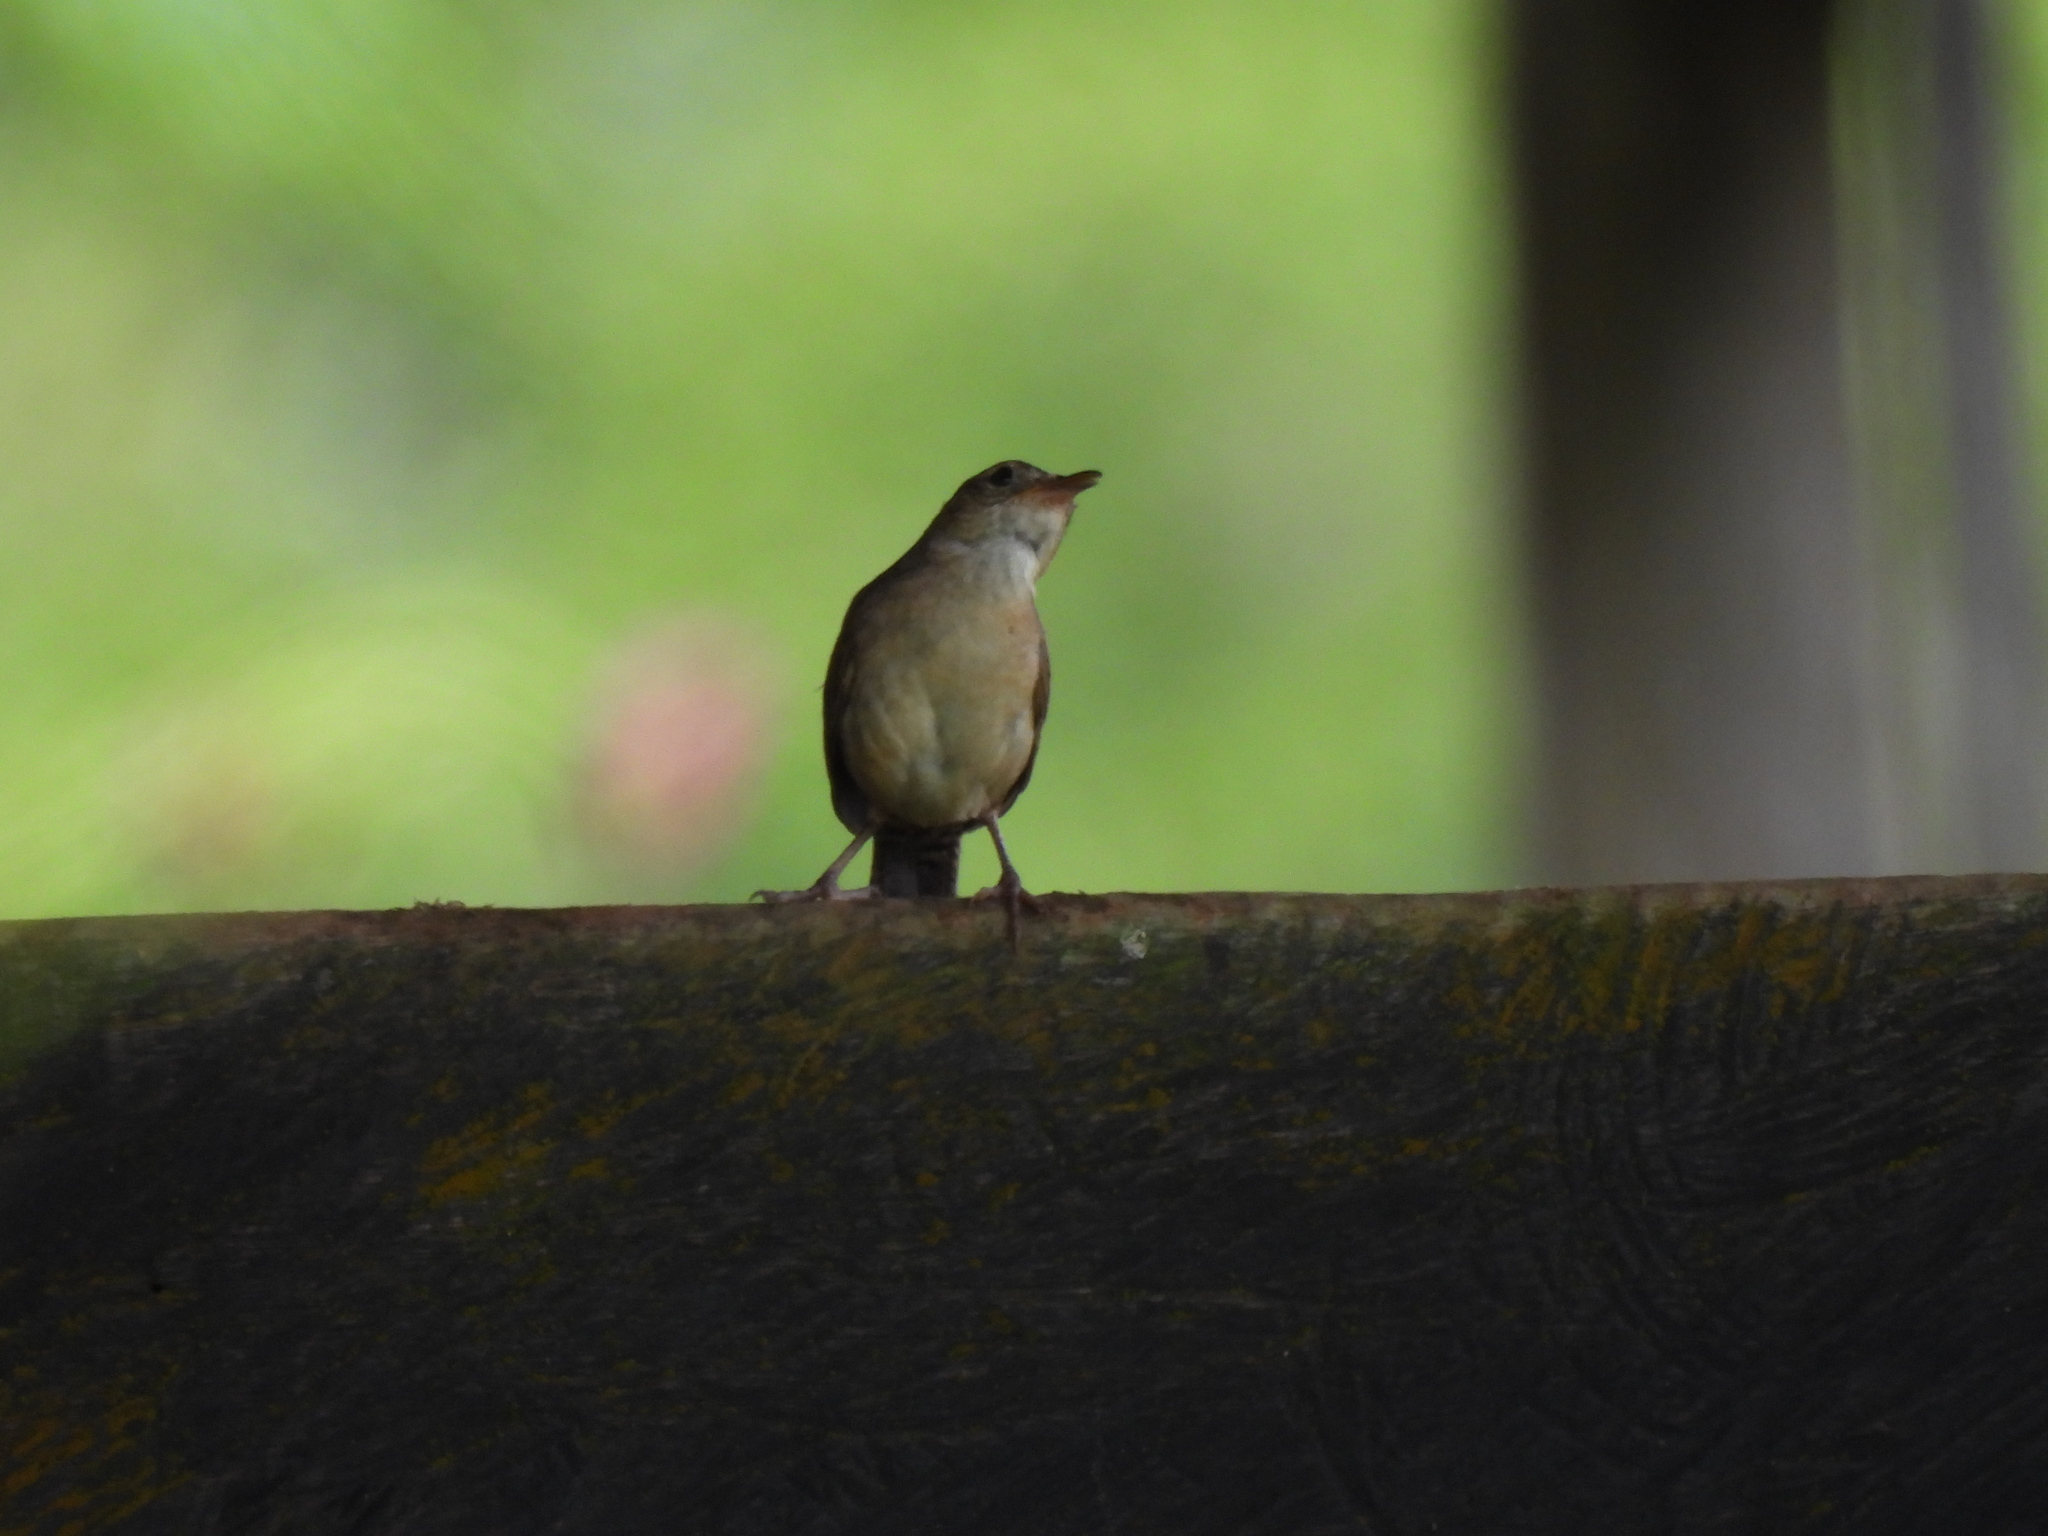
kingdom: Animalia
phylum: Chordata
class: Aves
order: Passeriformes
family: Troglodytidae
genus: Troglodytes
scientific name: Troglodytes aedon
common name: House wren
